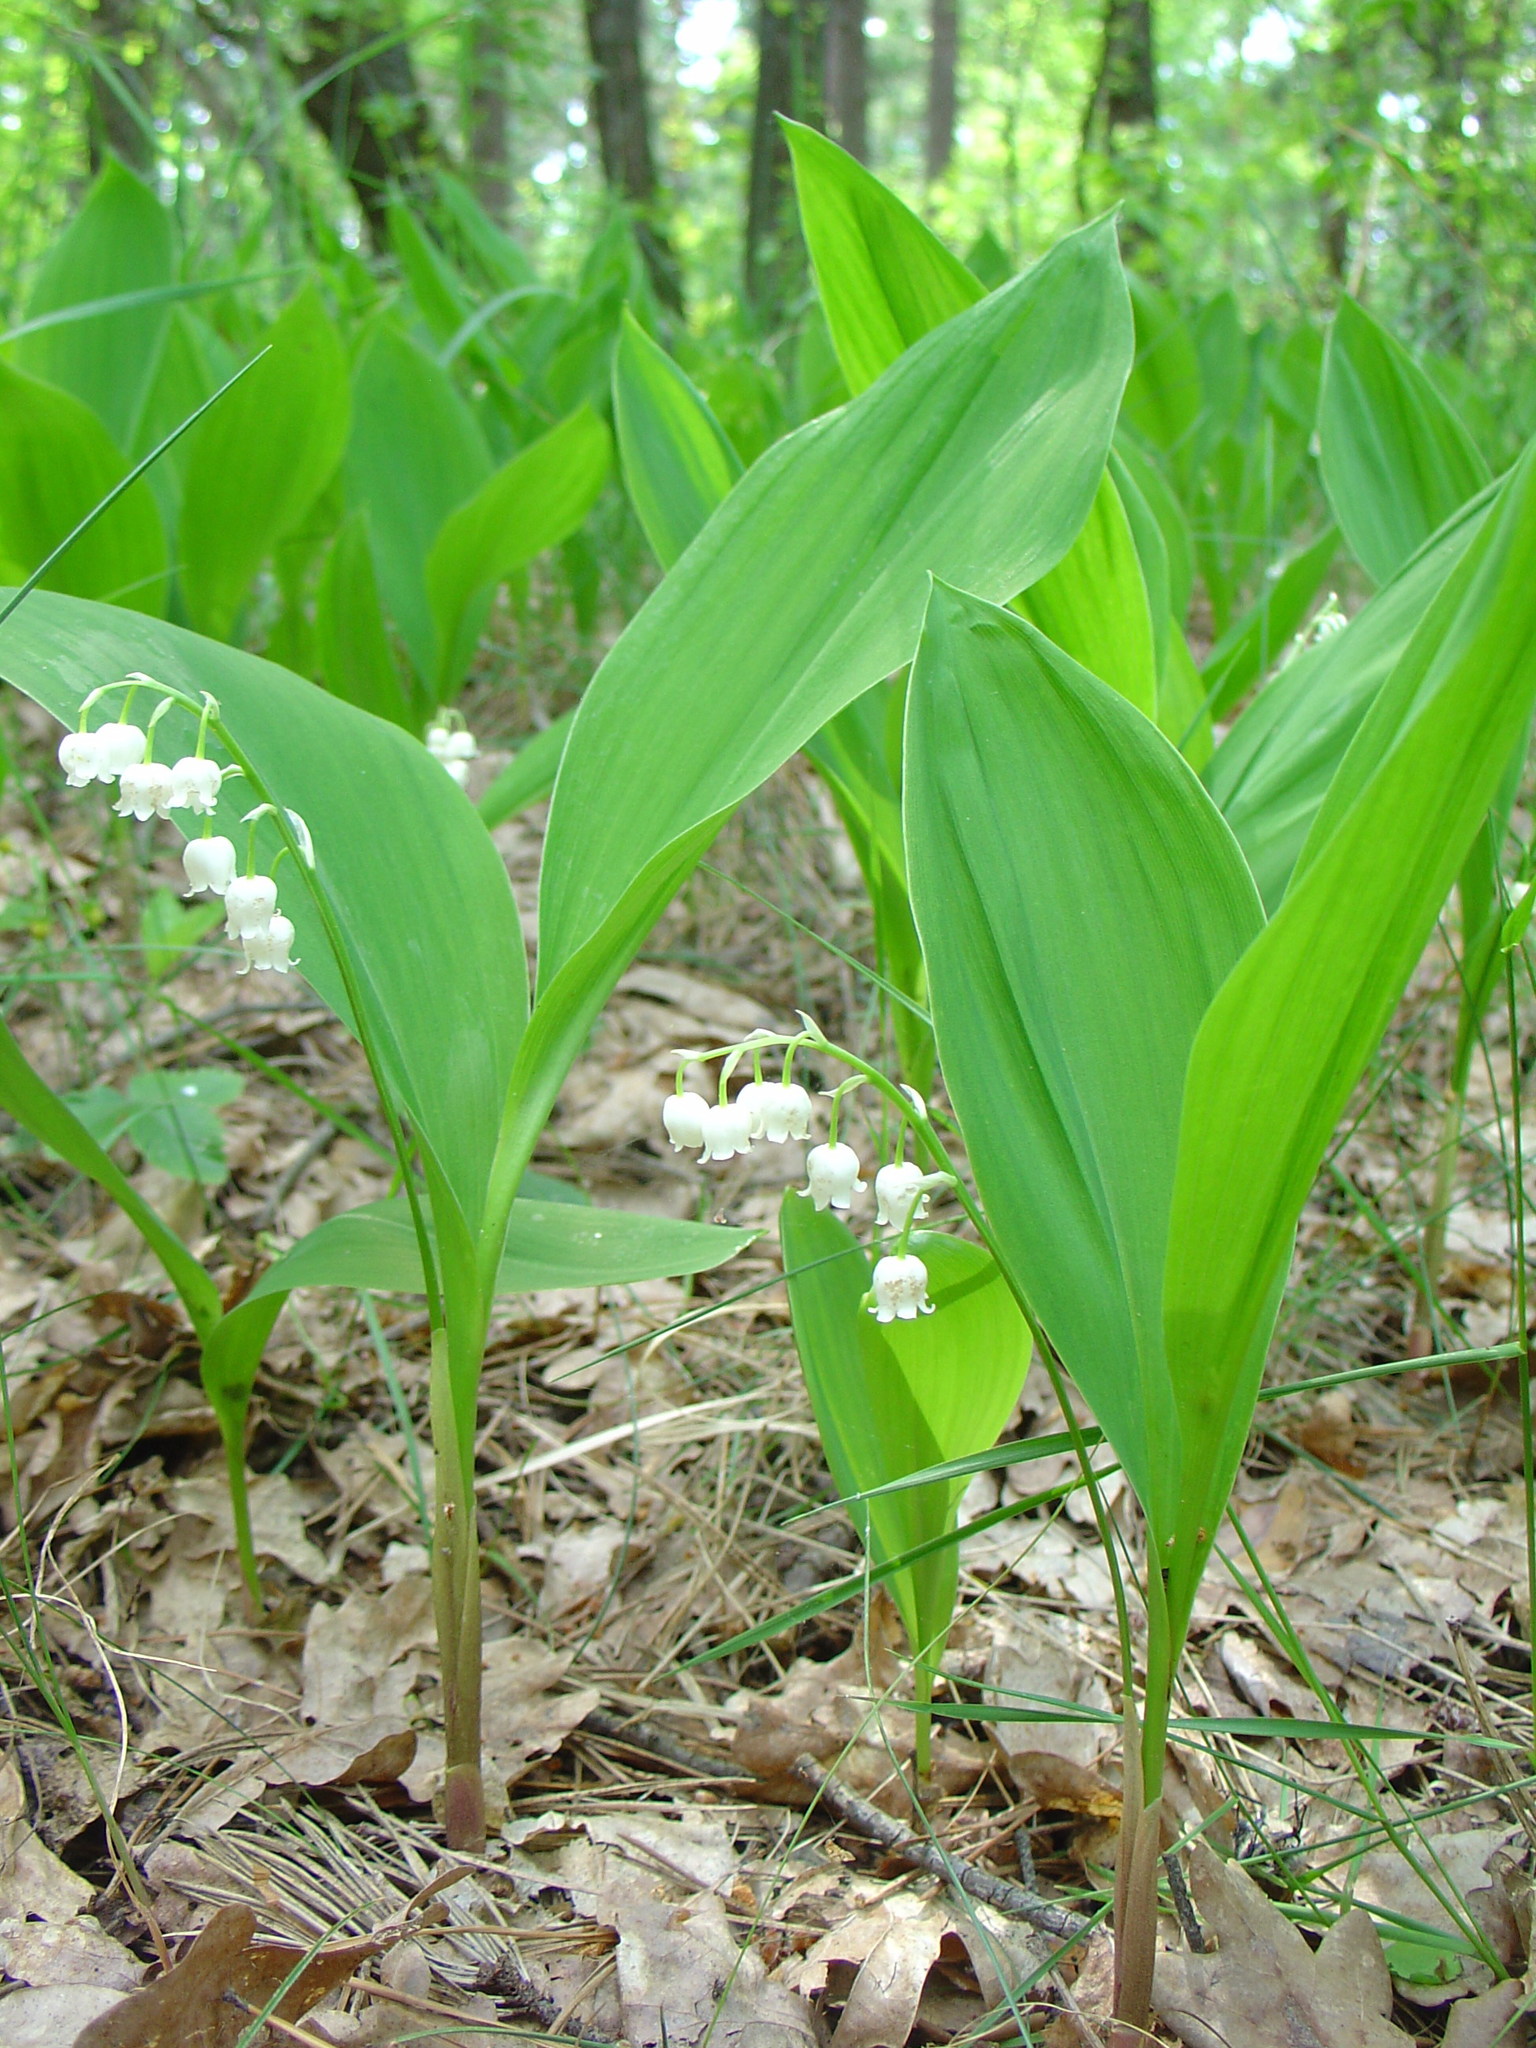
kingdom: Plantae
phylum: Tracheophyta
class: Liliopsida
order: Asparagales
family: Asparagaceae
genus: Convallaria
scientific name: Convallaria majalis
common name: Lily-of-the-valley
